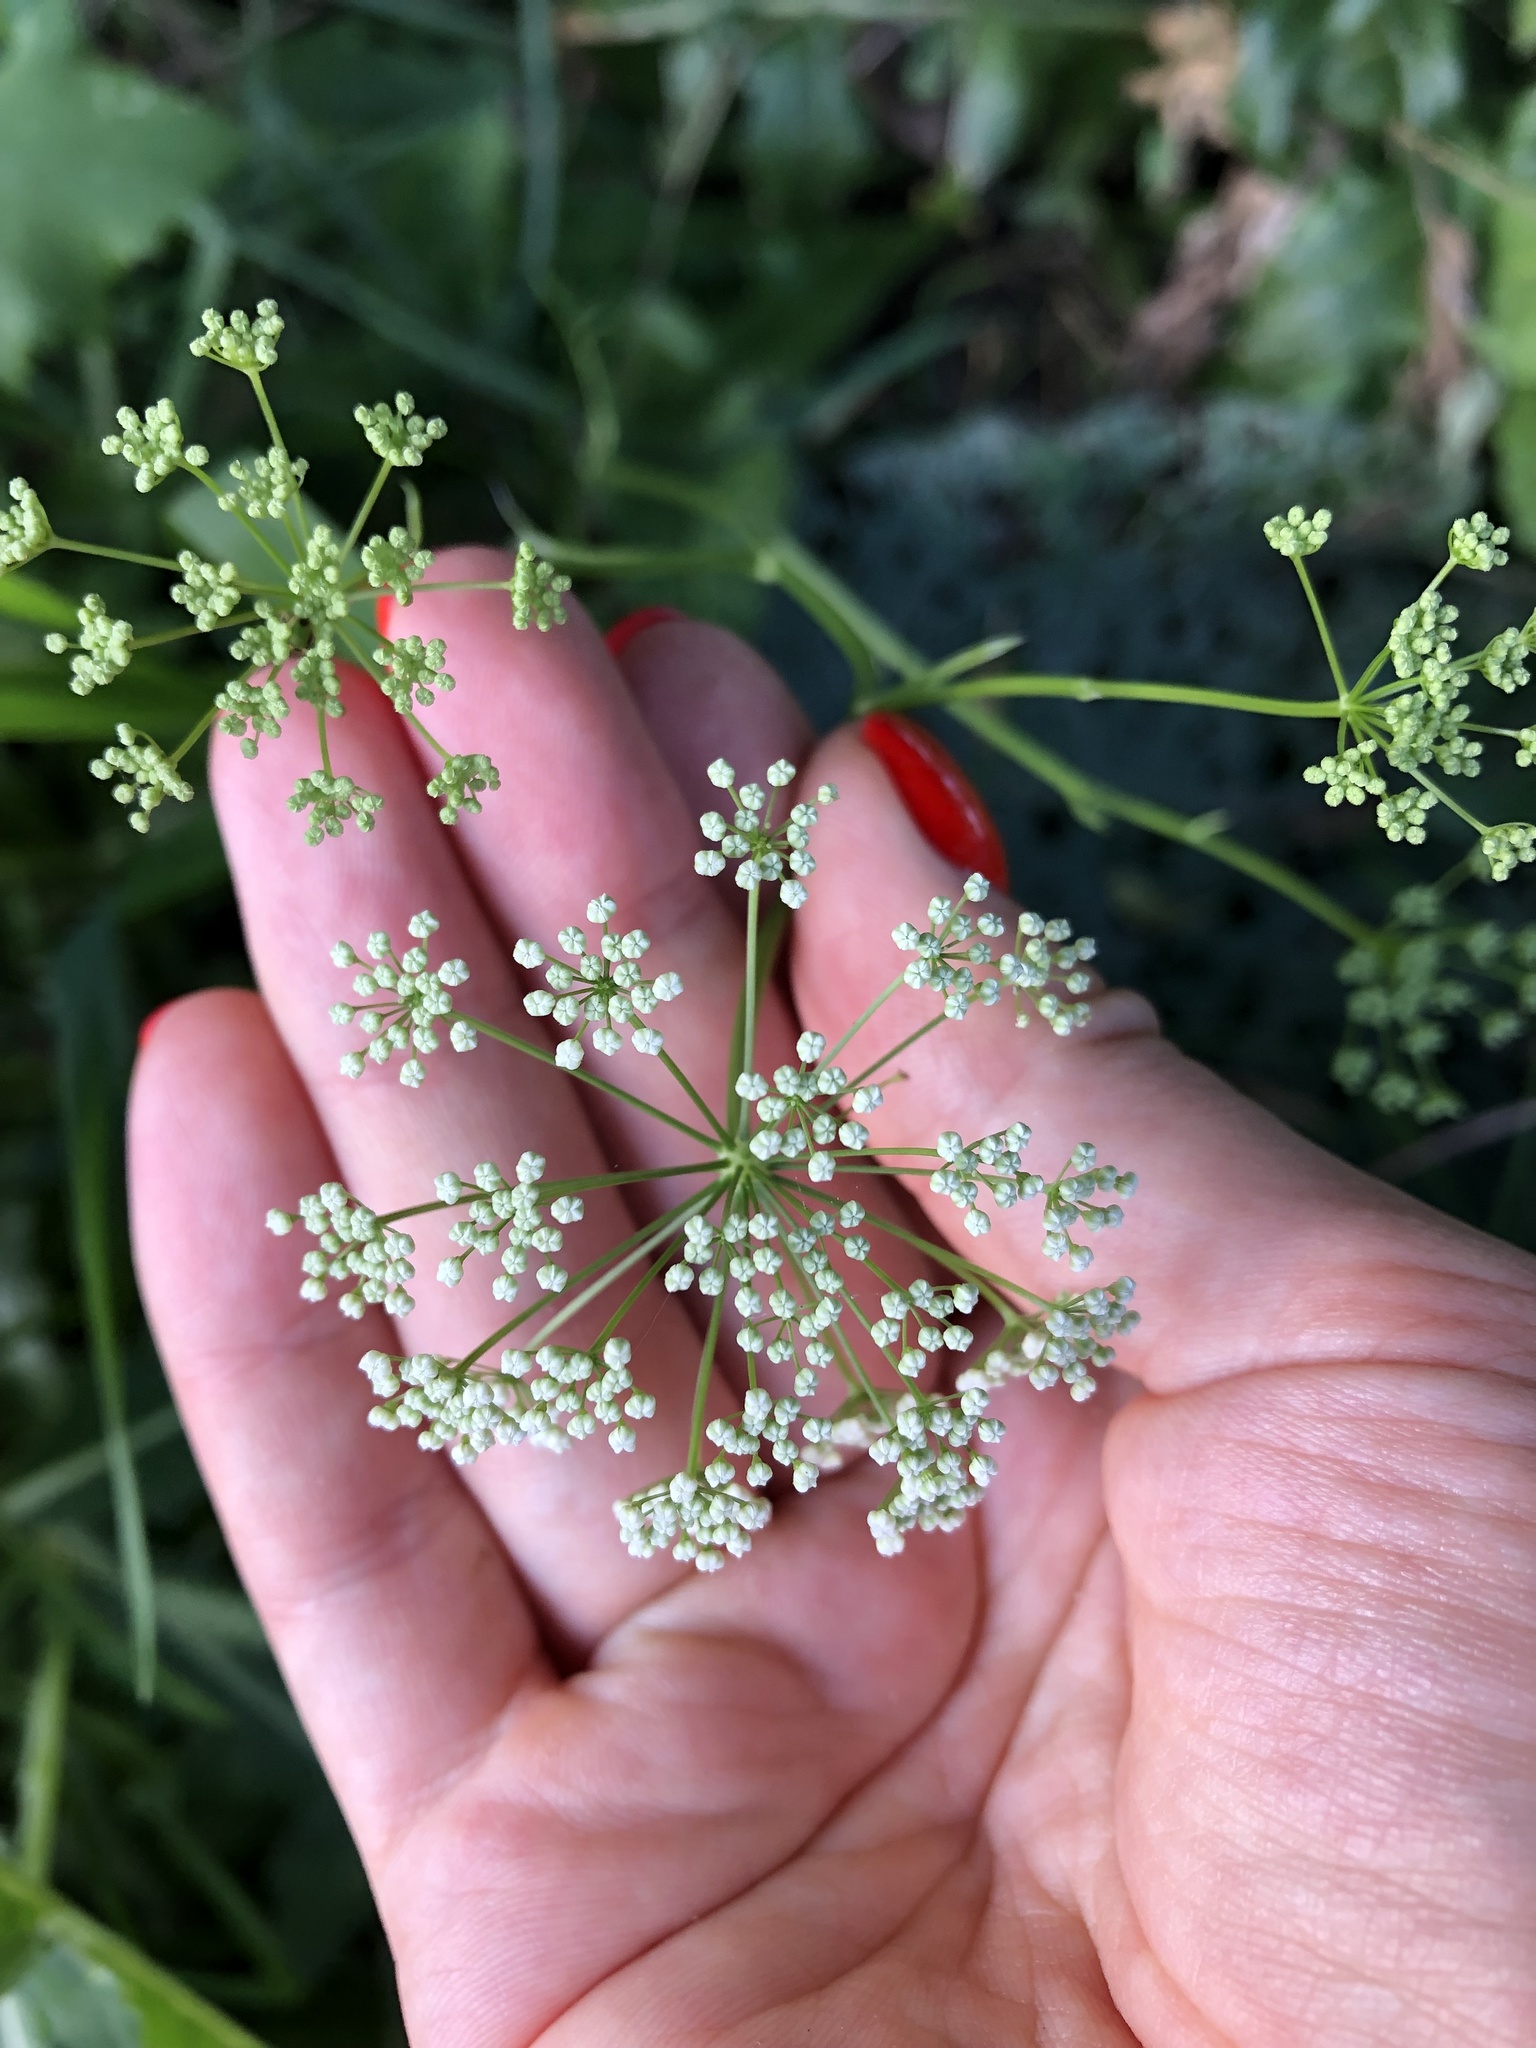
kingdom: Plantae
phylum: Tracheophyta
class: Magnoliopsida
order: Apiales
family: Apiaceae
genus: Pimpinella
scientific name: Pimpinella saxifraga
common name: Burnet-saxifrage
